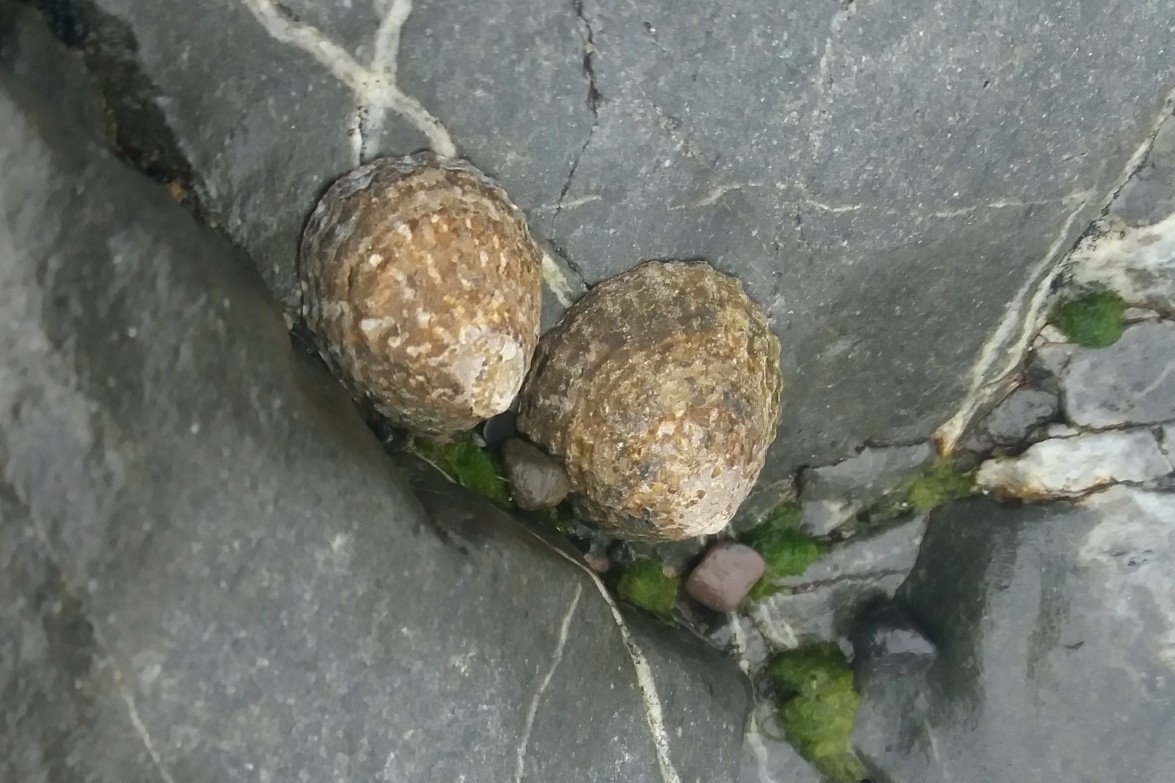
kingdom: Animalia
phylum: Mollusca
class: Gastropoda
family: Nacellidae
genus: Cellana
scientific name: Cellana denticulata
